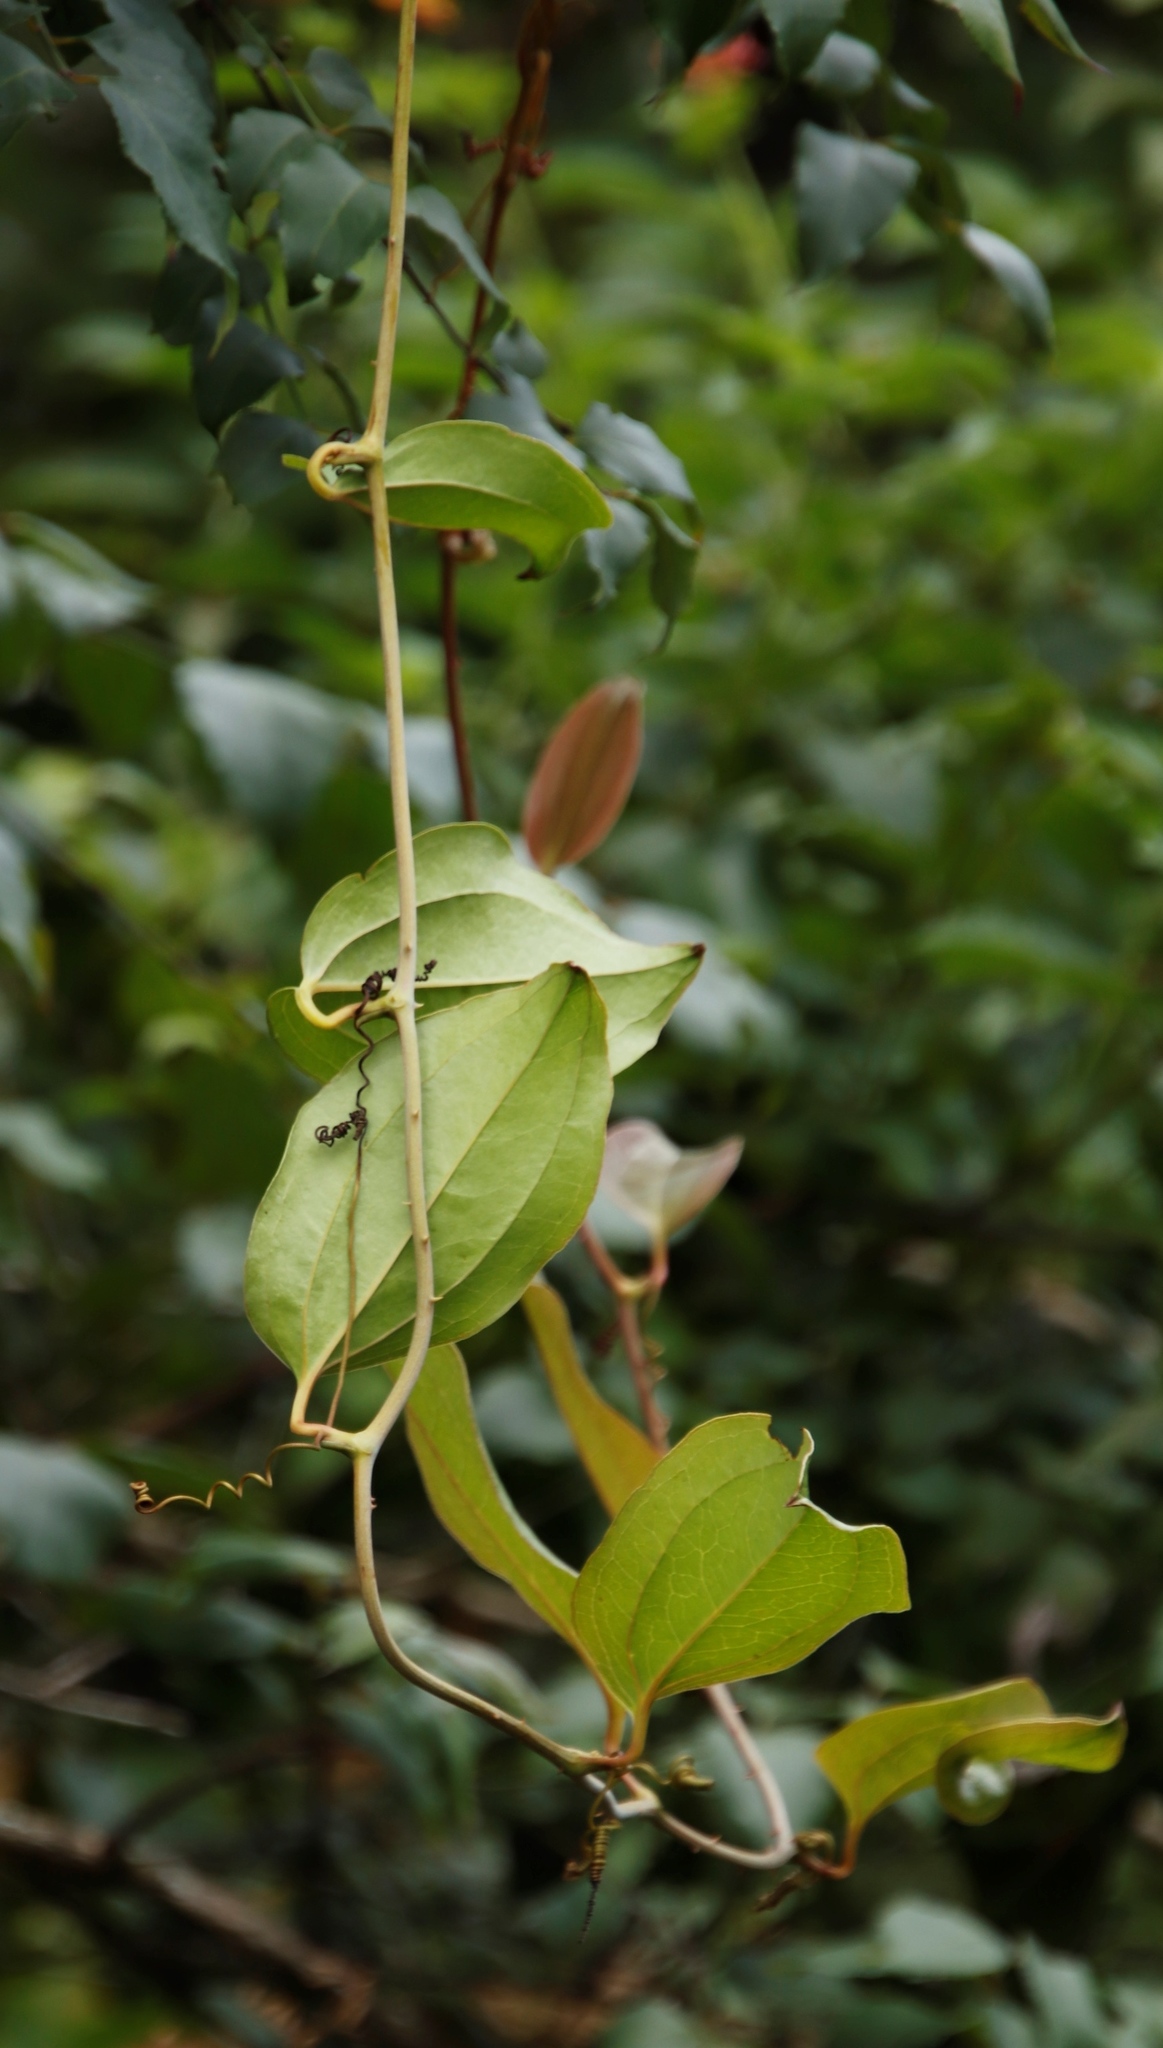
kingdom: Plantae
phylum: Tracheophyta
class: Liliopsida
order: Liliales
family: Smilacaceae
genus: Smilax
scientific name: Smilax anceps
